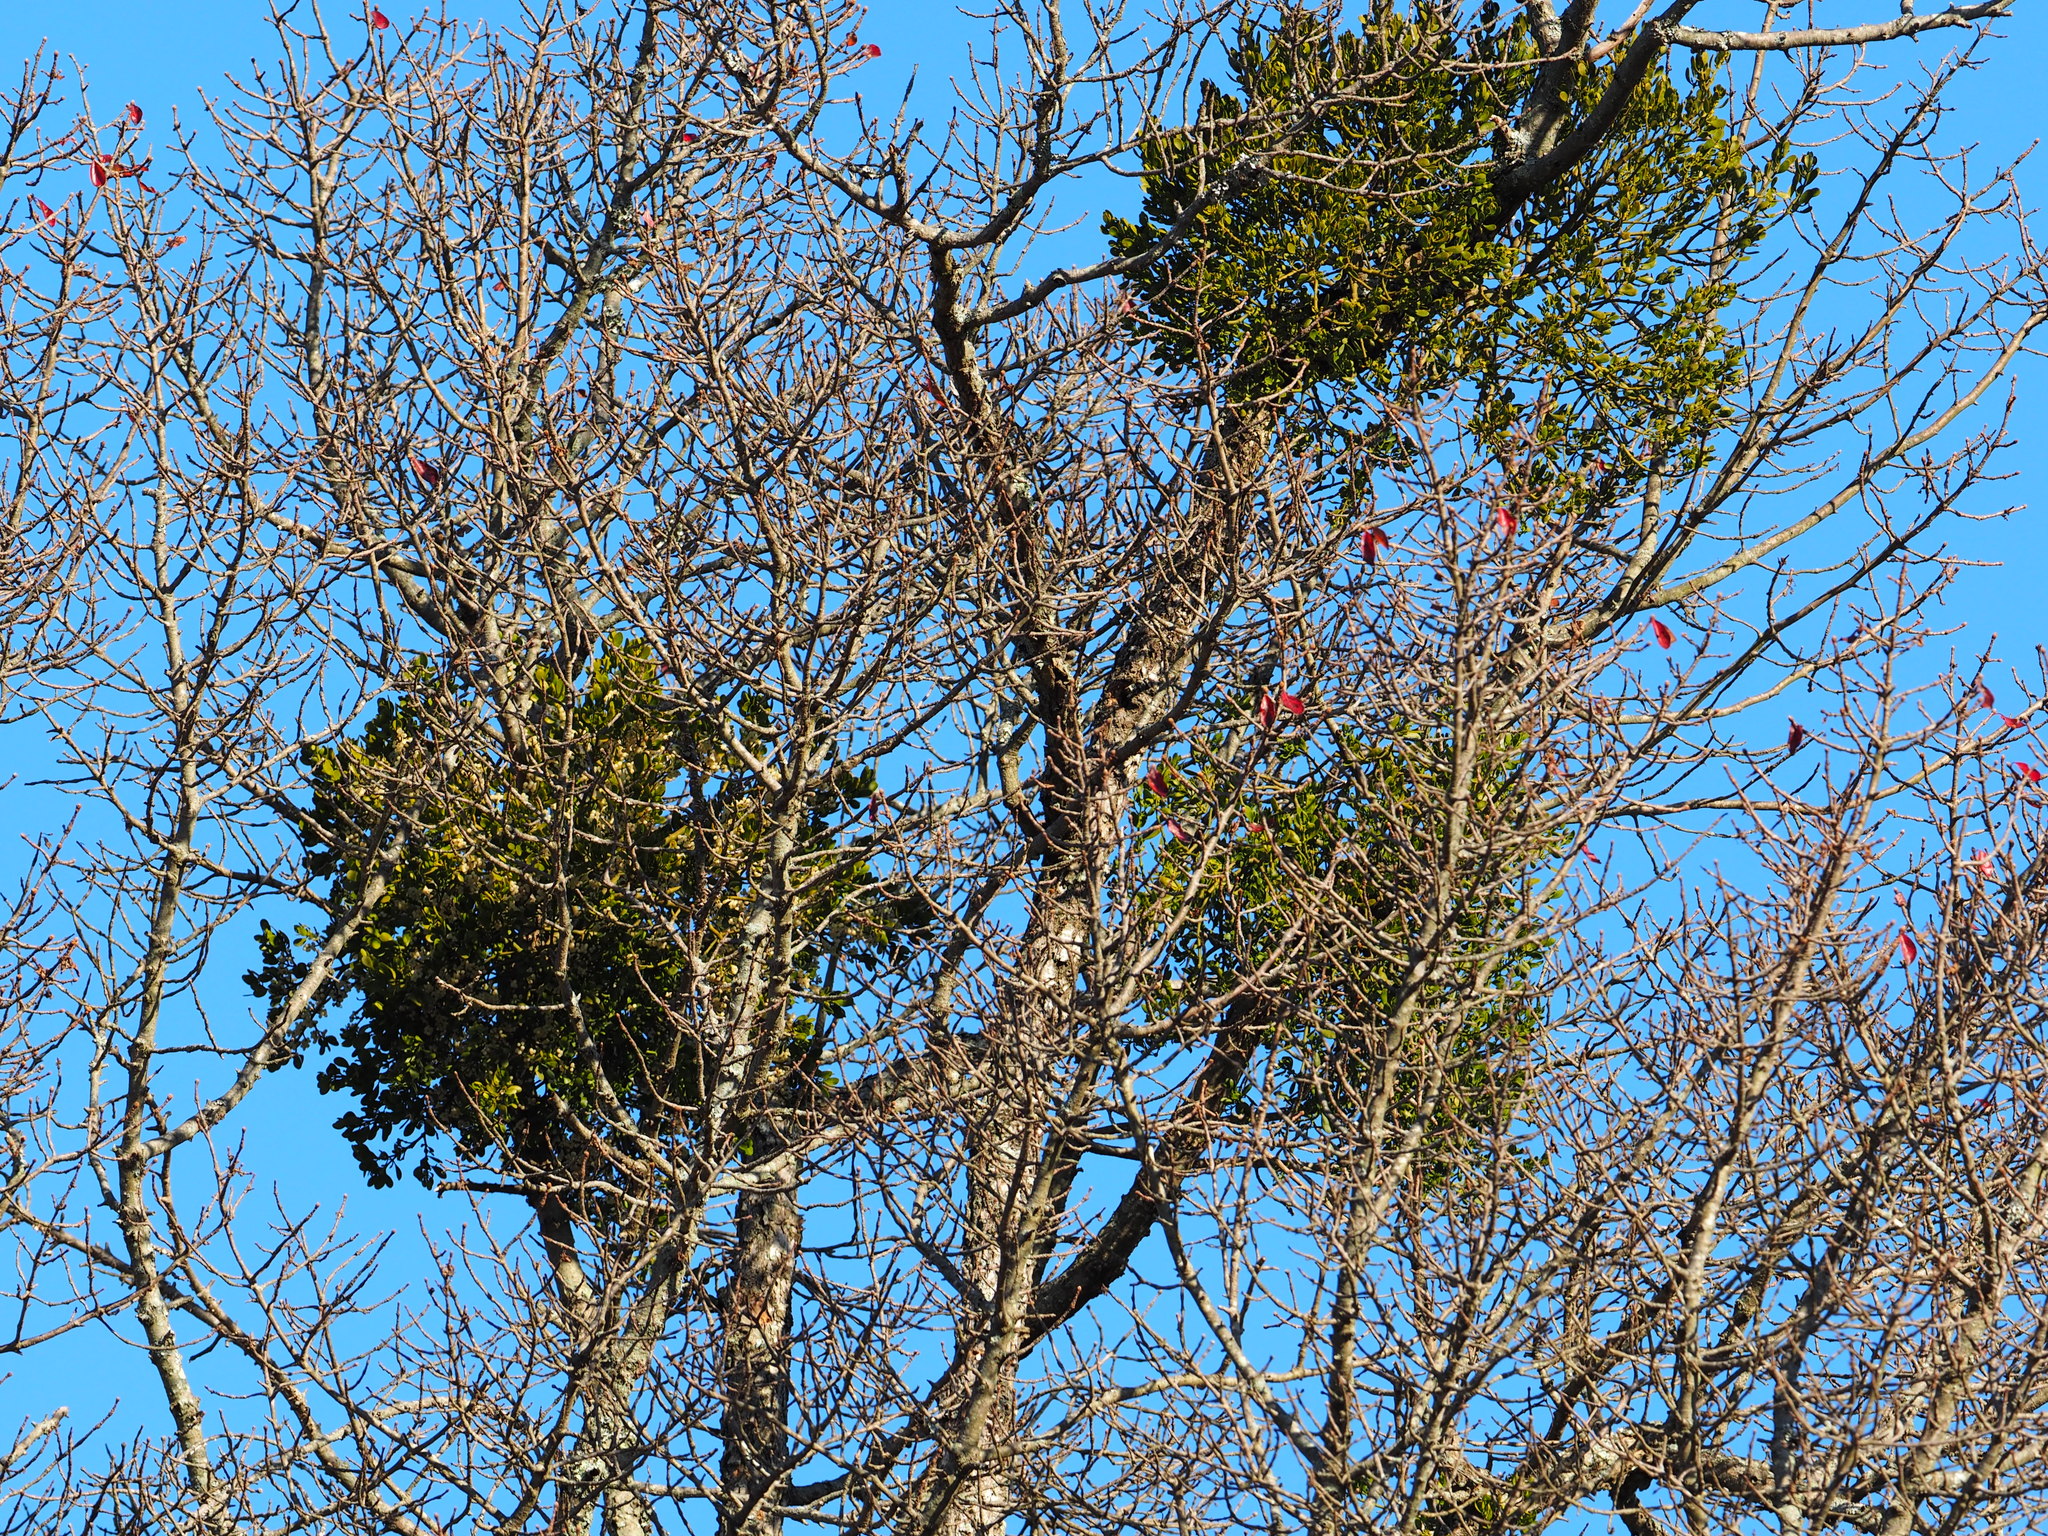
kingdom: Plantae
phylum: Tracheophyta
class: Magnoliopsida
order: Santalales
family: Viscaceae
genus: Phoradendron
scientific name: Phoradendron leucarpum
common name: Pacific mistletoe
